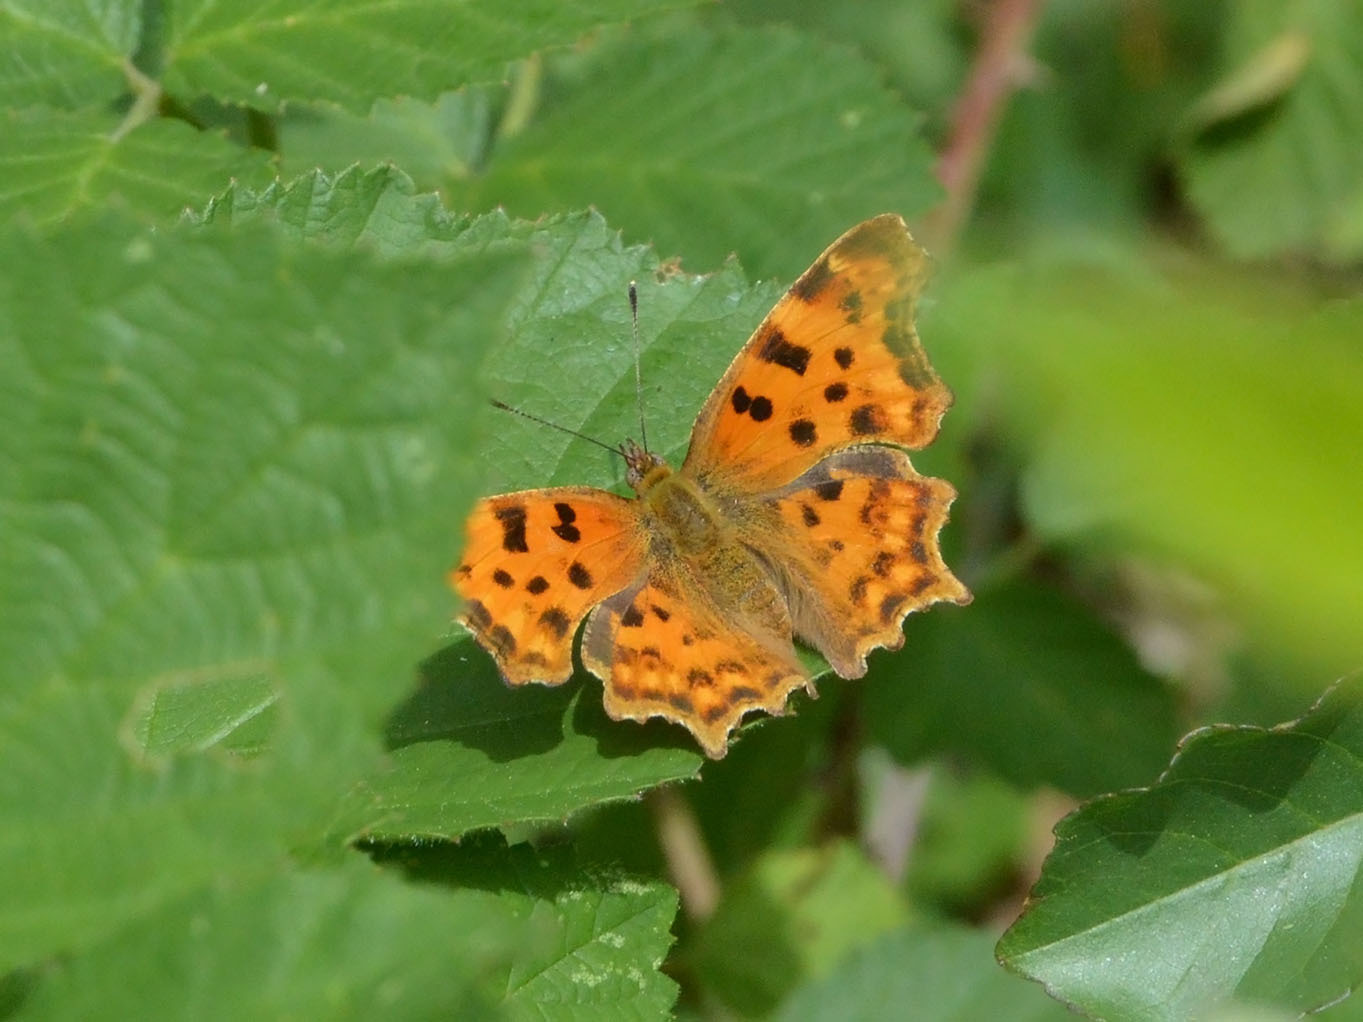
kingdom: Animalia
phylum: Arthropoda
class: Insecta
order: Lepidoptera
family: Nymphalidae
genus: Polygonia
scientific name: Polygonia c-album
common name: Comma
